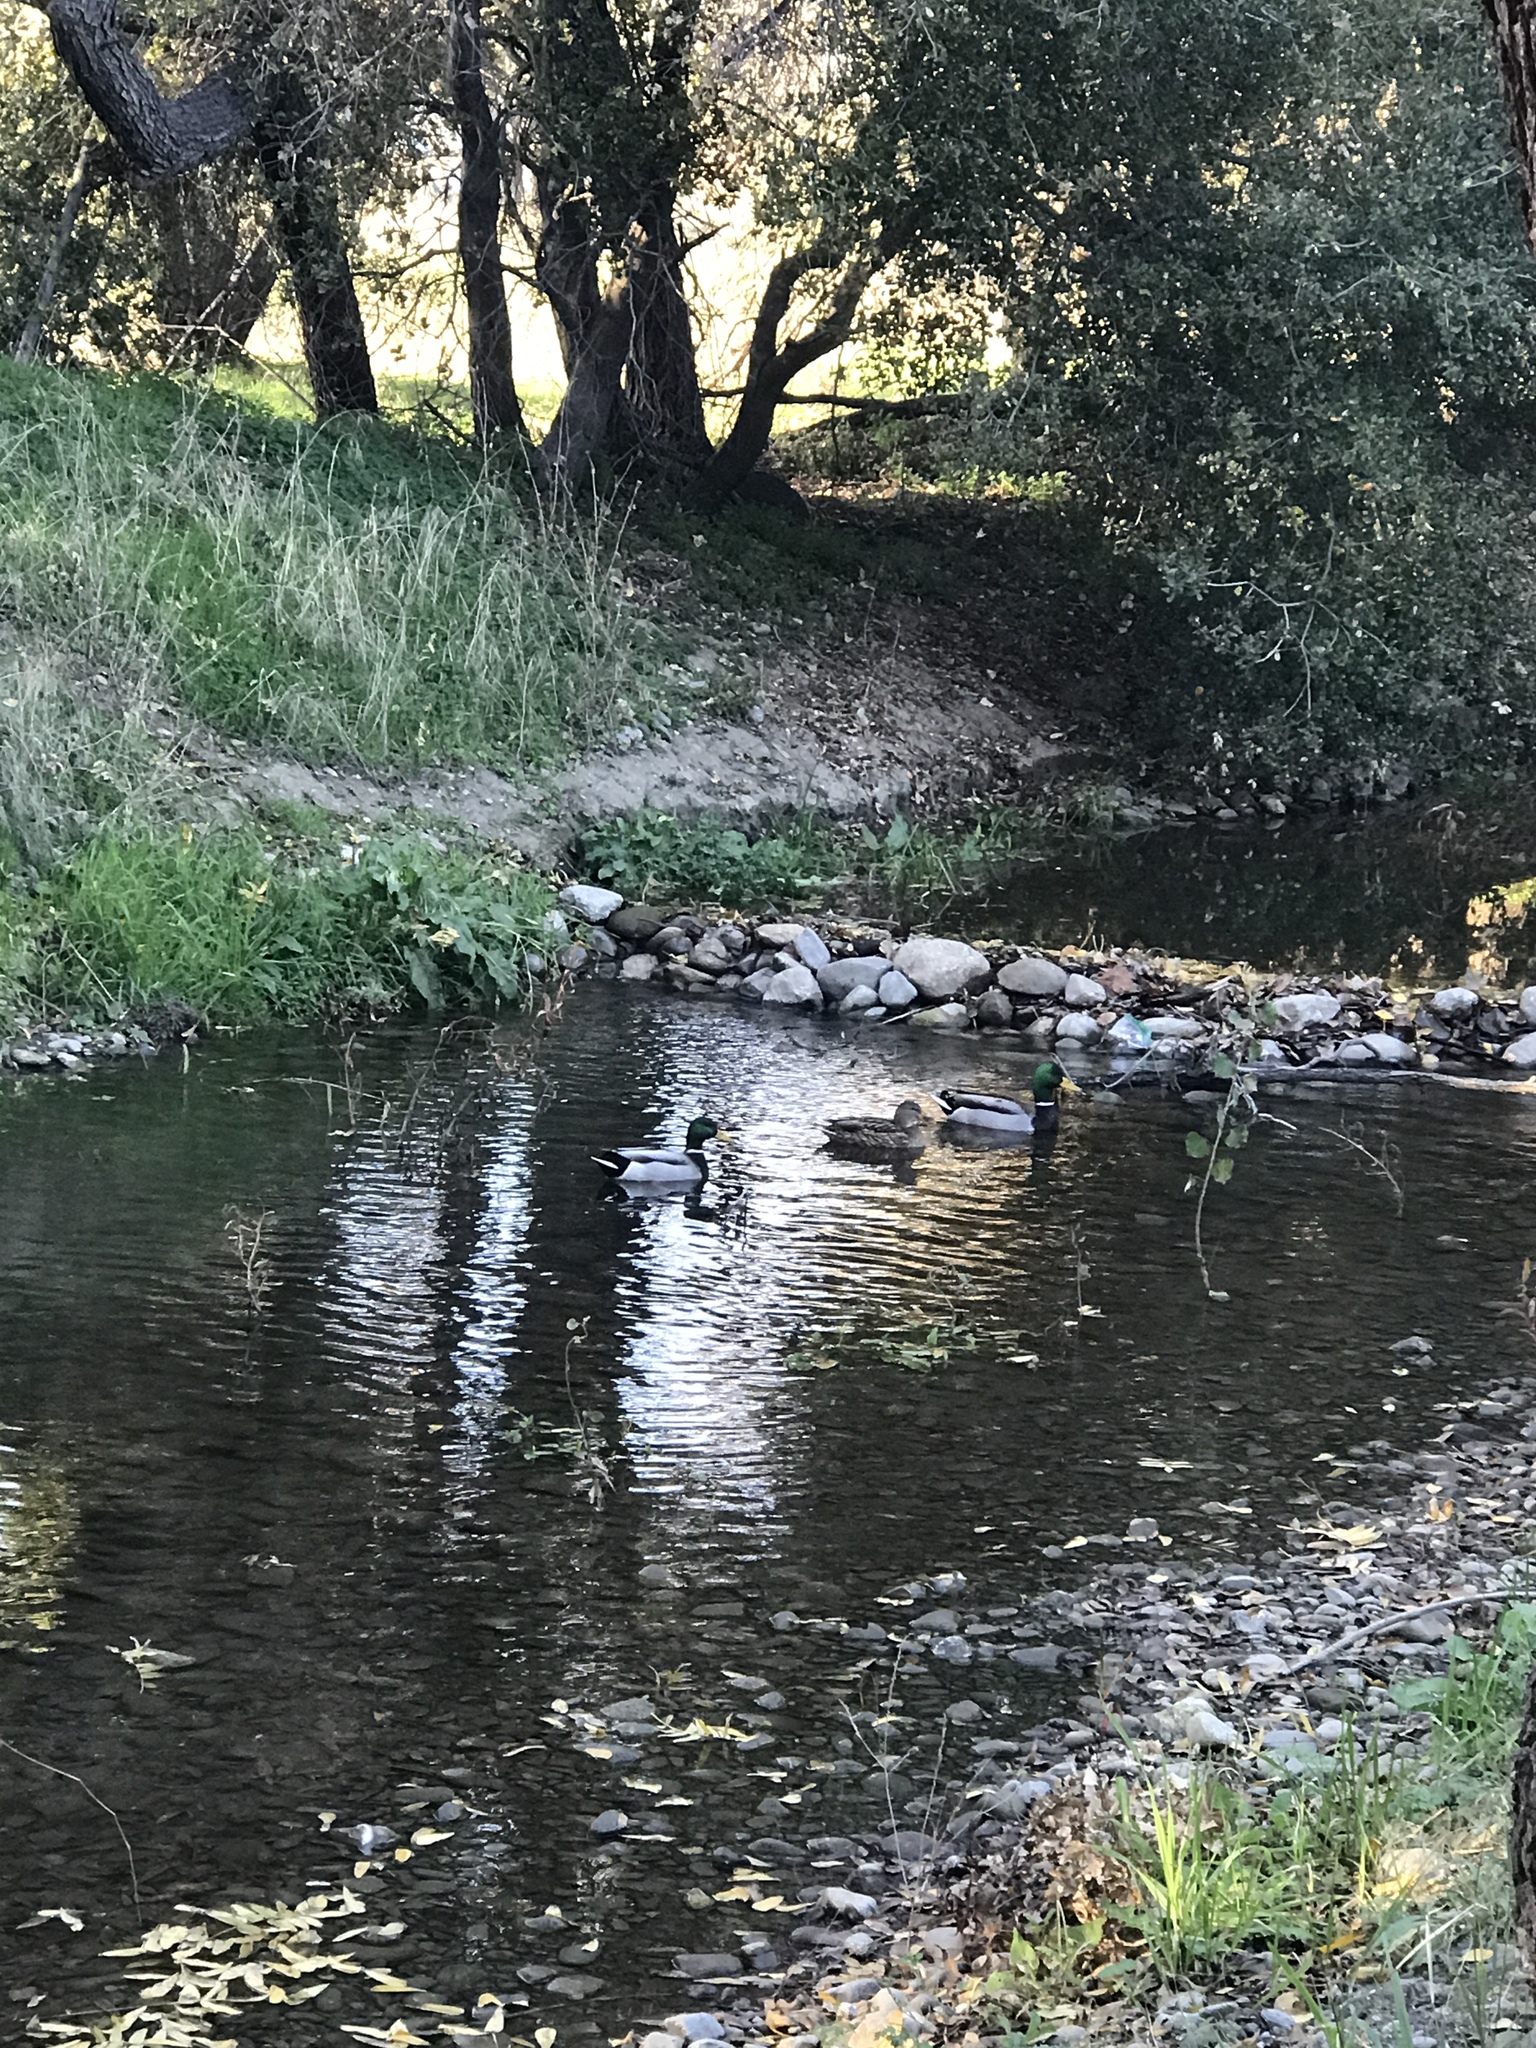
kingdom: Animalia
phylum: Chordata
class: Aves
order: Anseriformes
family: Anatidae
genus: Anas
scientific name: Anas platyrhynchos
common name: Mallard
